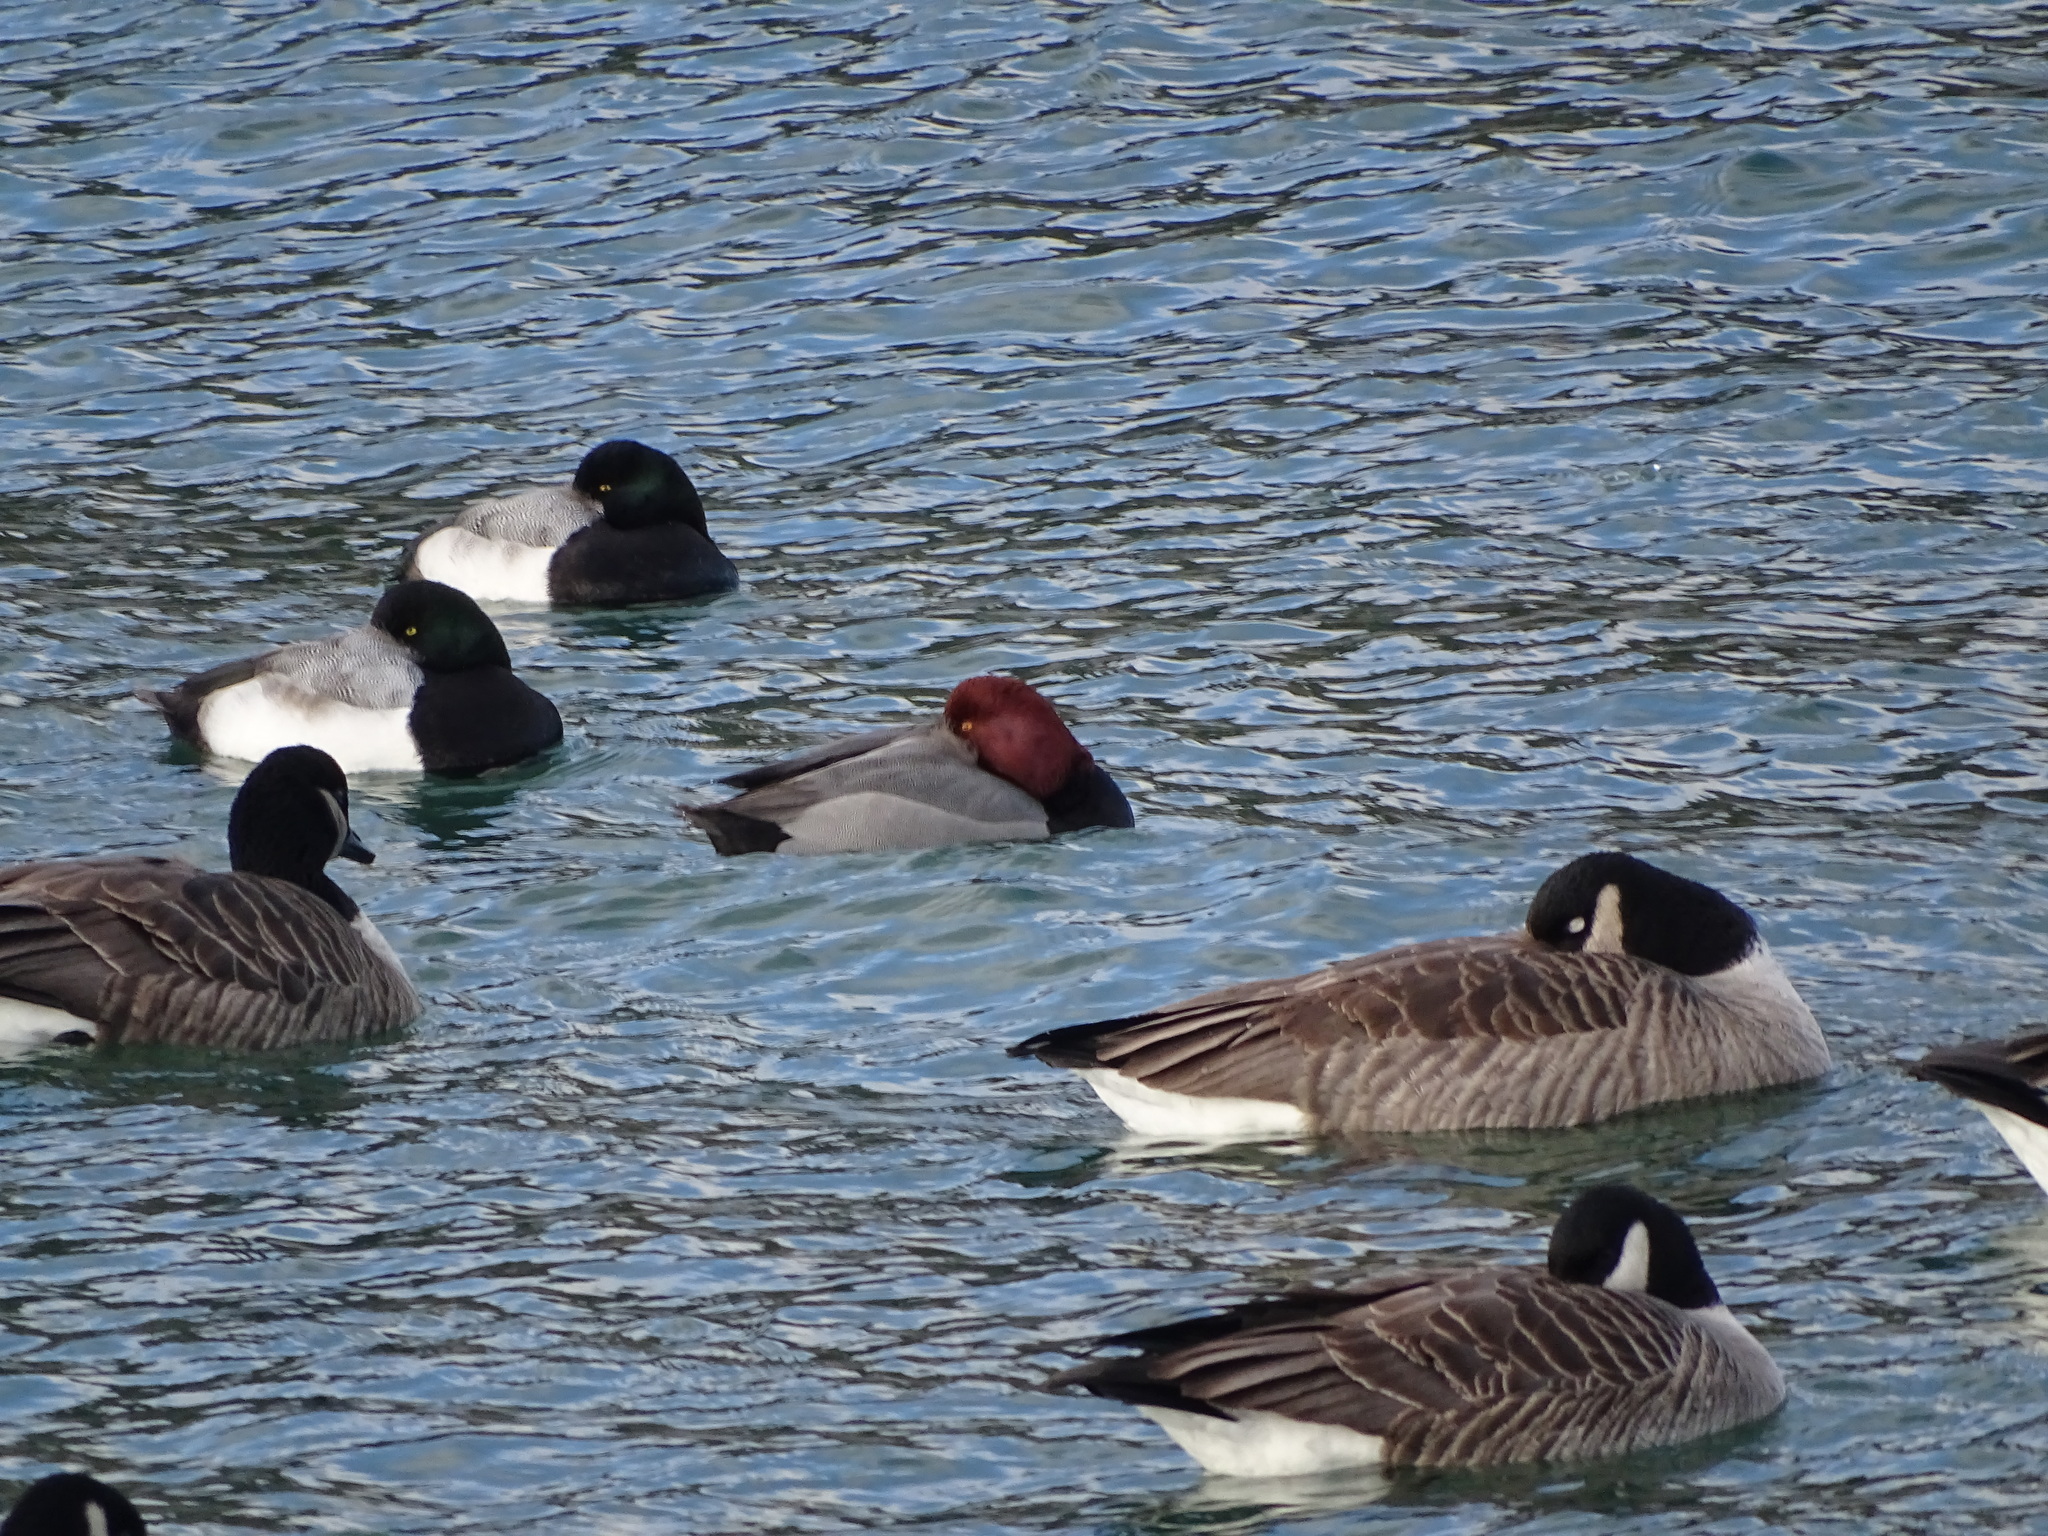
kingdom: Animalia
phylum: Chordata
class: Aves
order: Anseriformes
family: Anatidae
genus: Aythya
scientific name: Aythya americana
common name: Redhead
